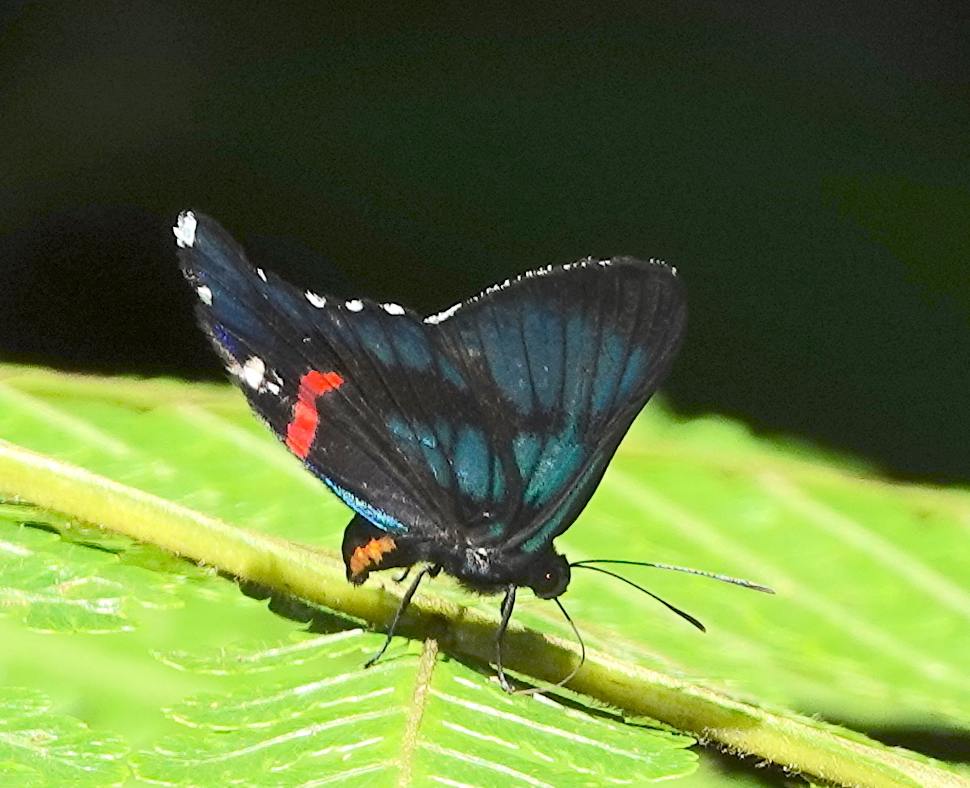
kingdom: Animalia
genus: Ancyluris
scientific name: Ancyluris aulestes
